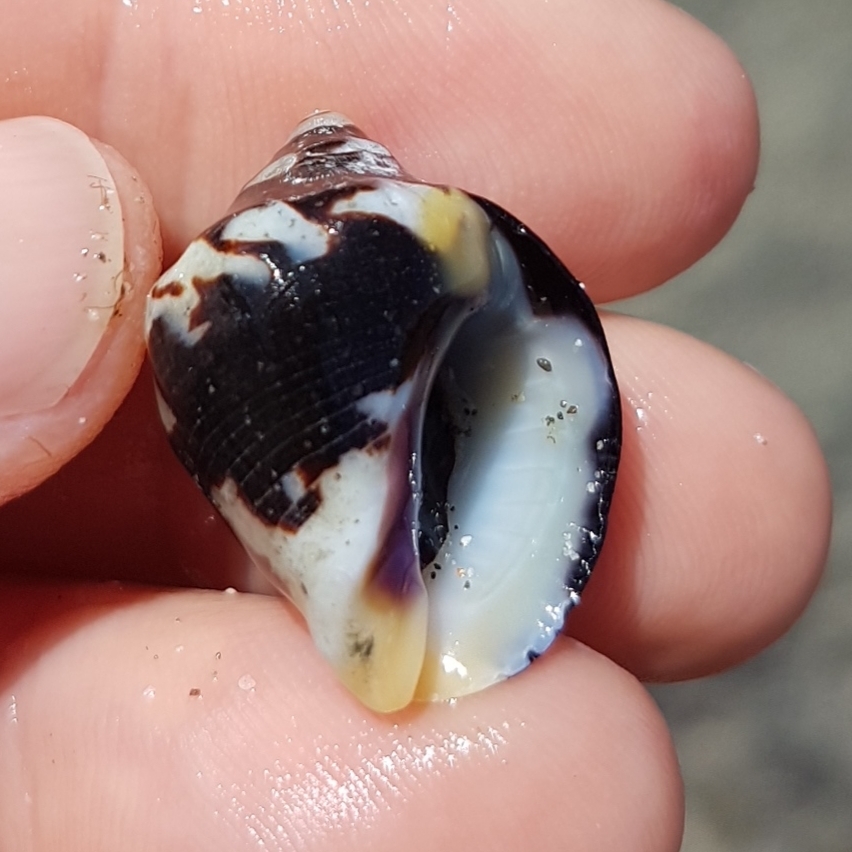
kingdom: Animalia
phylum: Mollusca
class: Gastropoda
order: Neogastropoda
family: Muricidae
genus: Vasula
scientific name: Vasula melones
